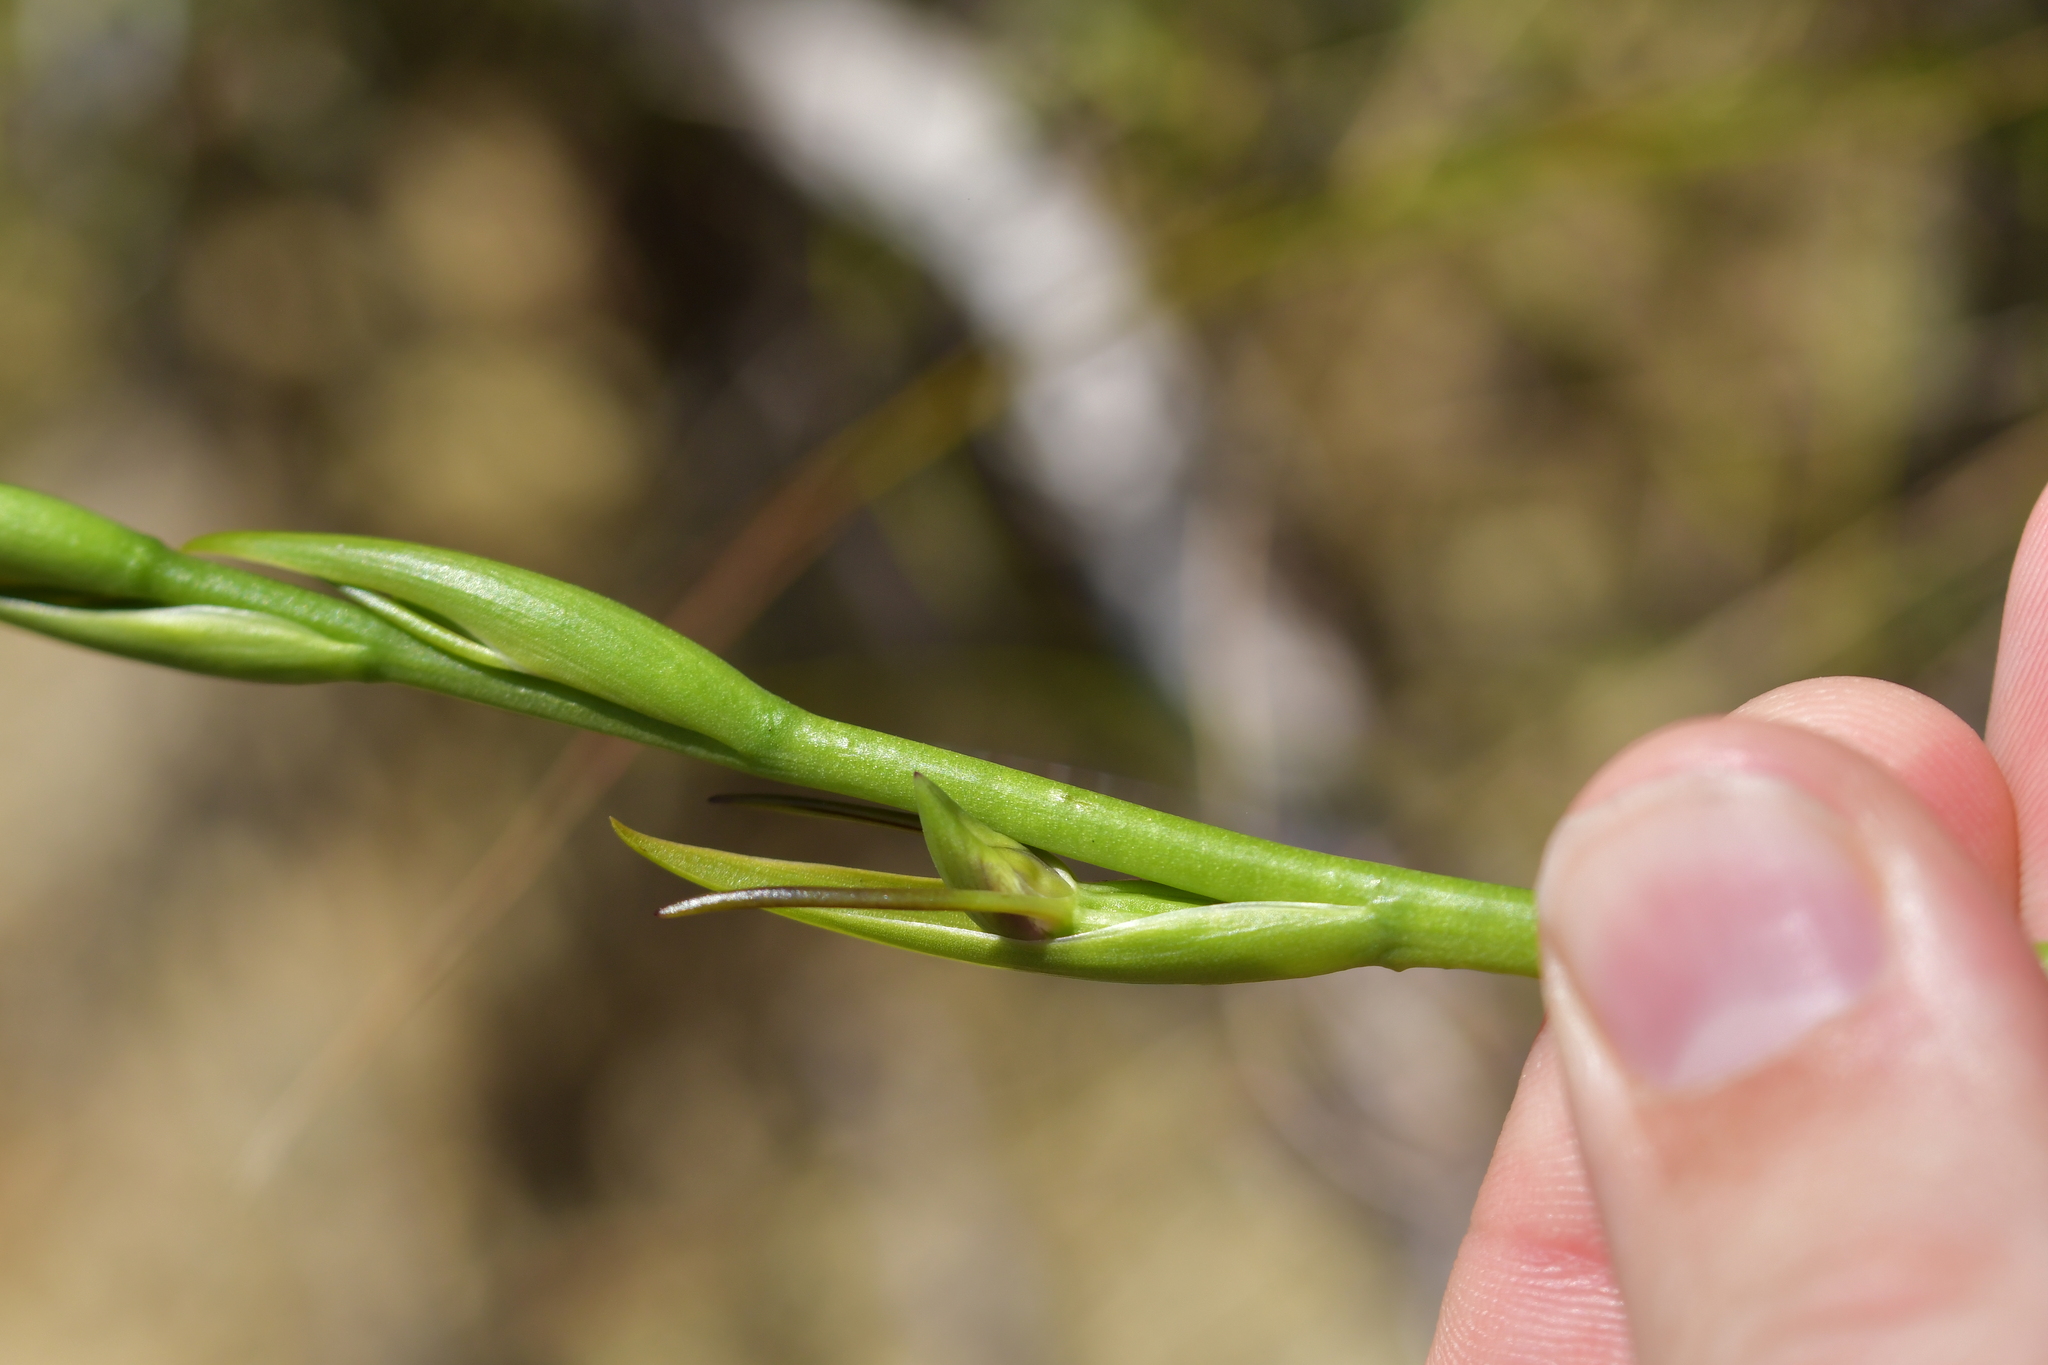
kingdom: Plantae
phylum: Tracheophyta
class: Liliopsida
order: Asparagales
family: Orchidaceae
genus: Orthoceras
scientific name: Orthoceras novae-zeelandiae
